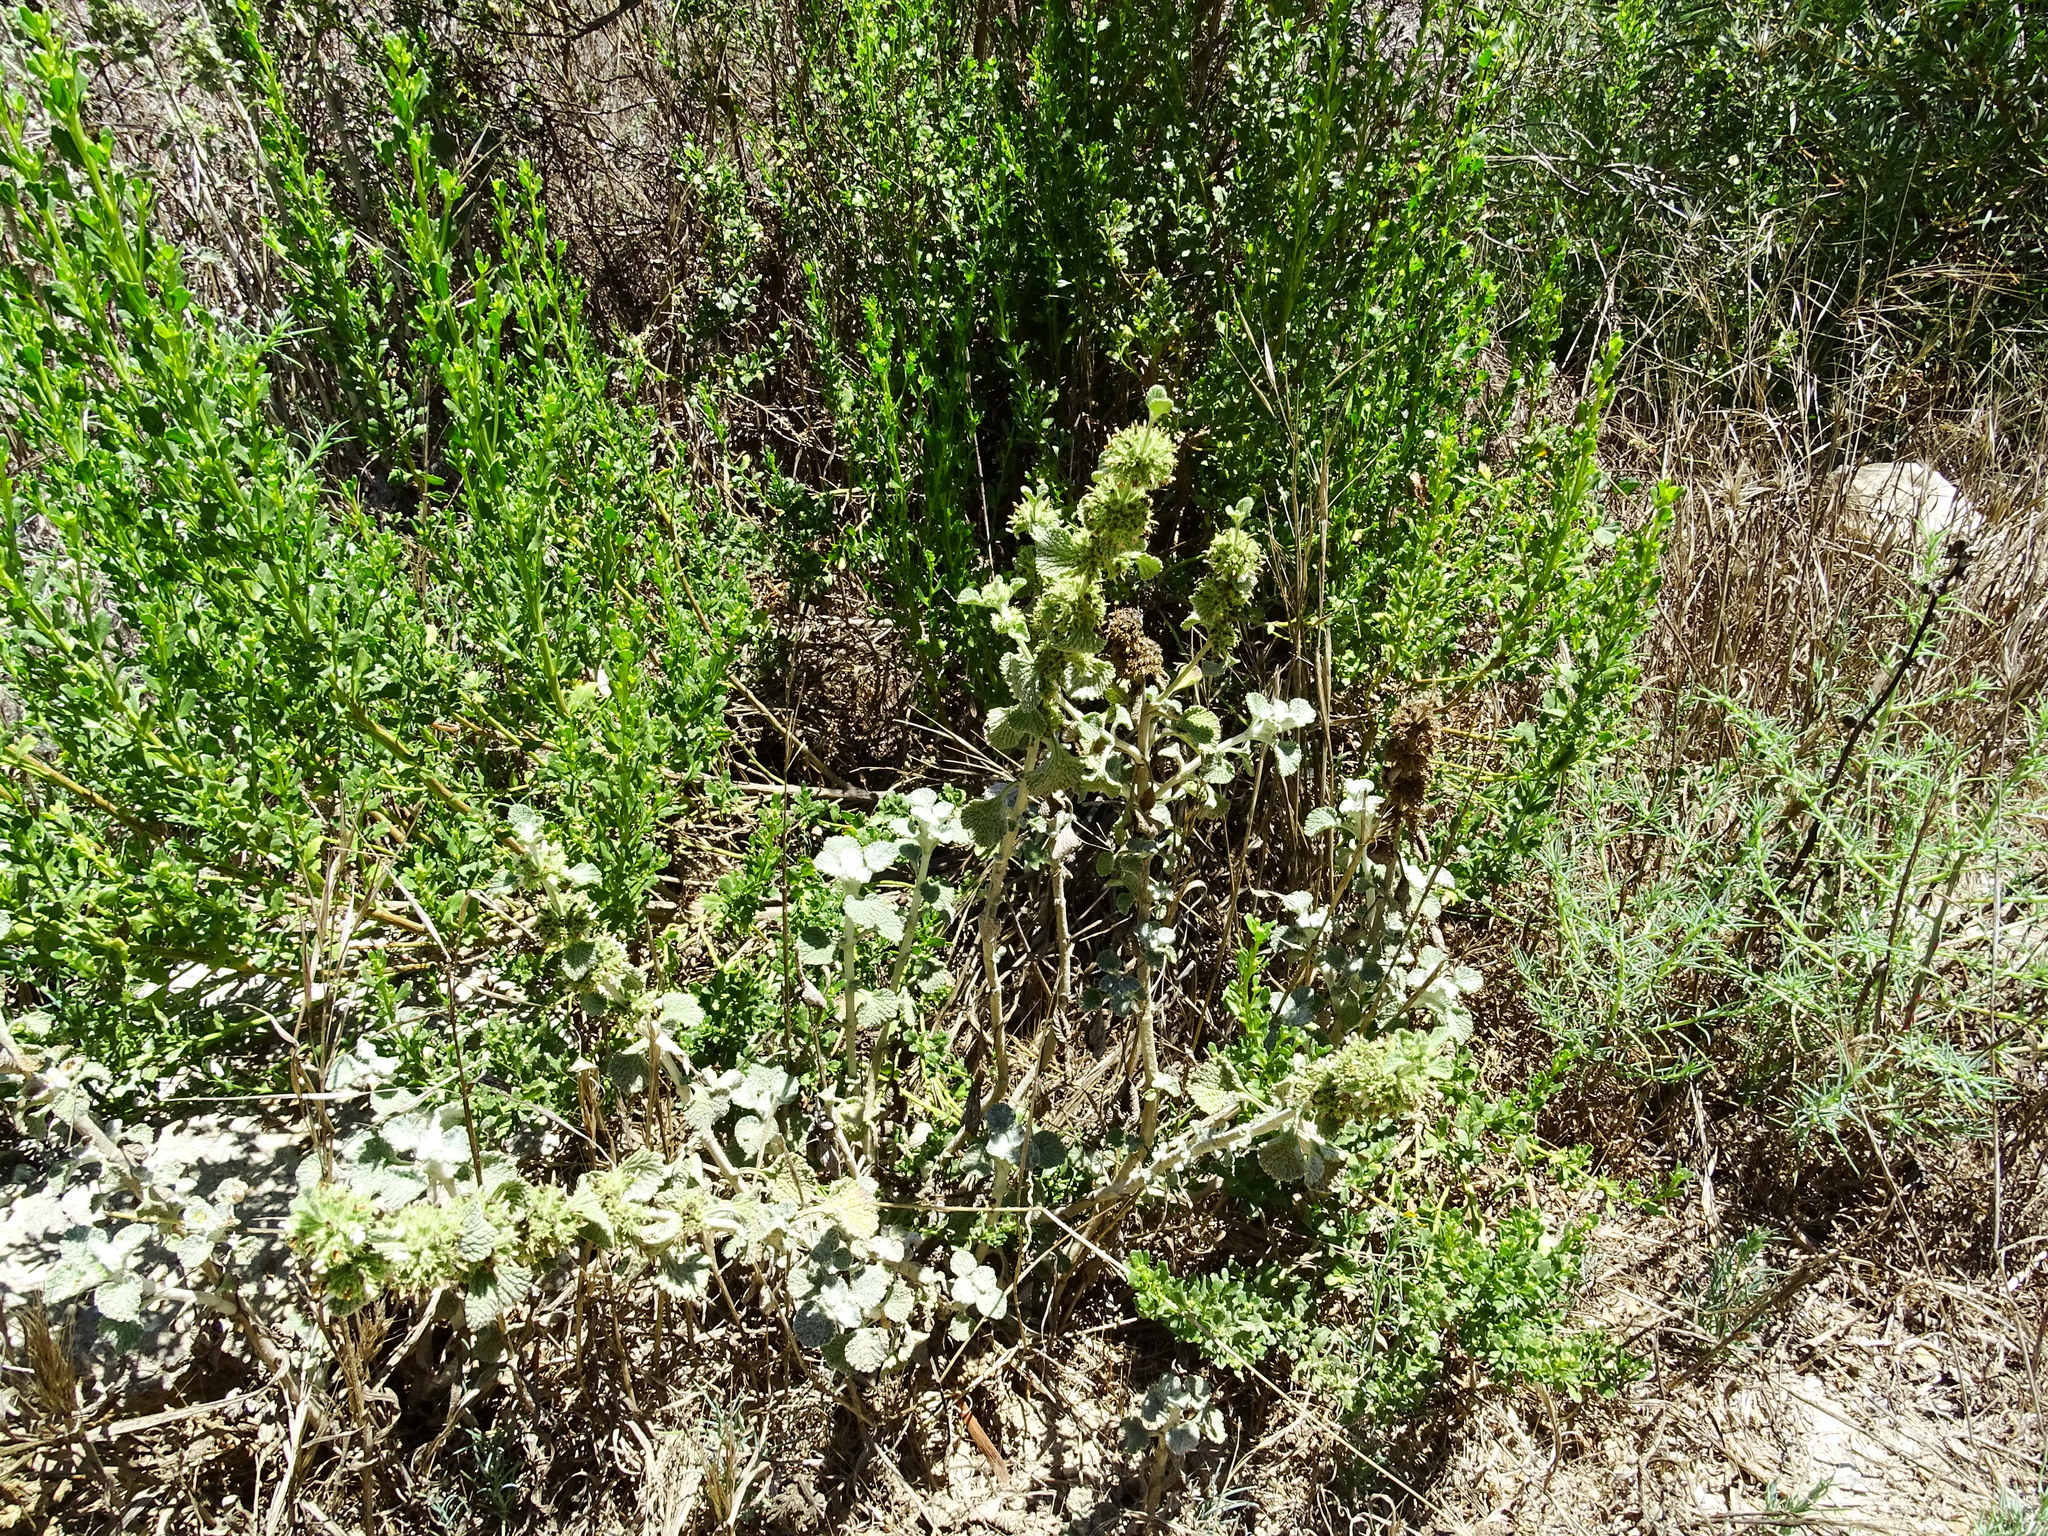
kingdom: Plantae
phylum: Tracheophyta
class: Magnoliopsida
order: Lamiales
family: Lamiaceae
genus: Marrubium
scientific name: Marrubium vulgare
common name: Horehound
